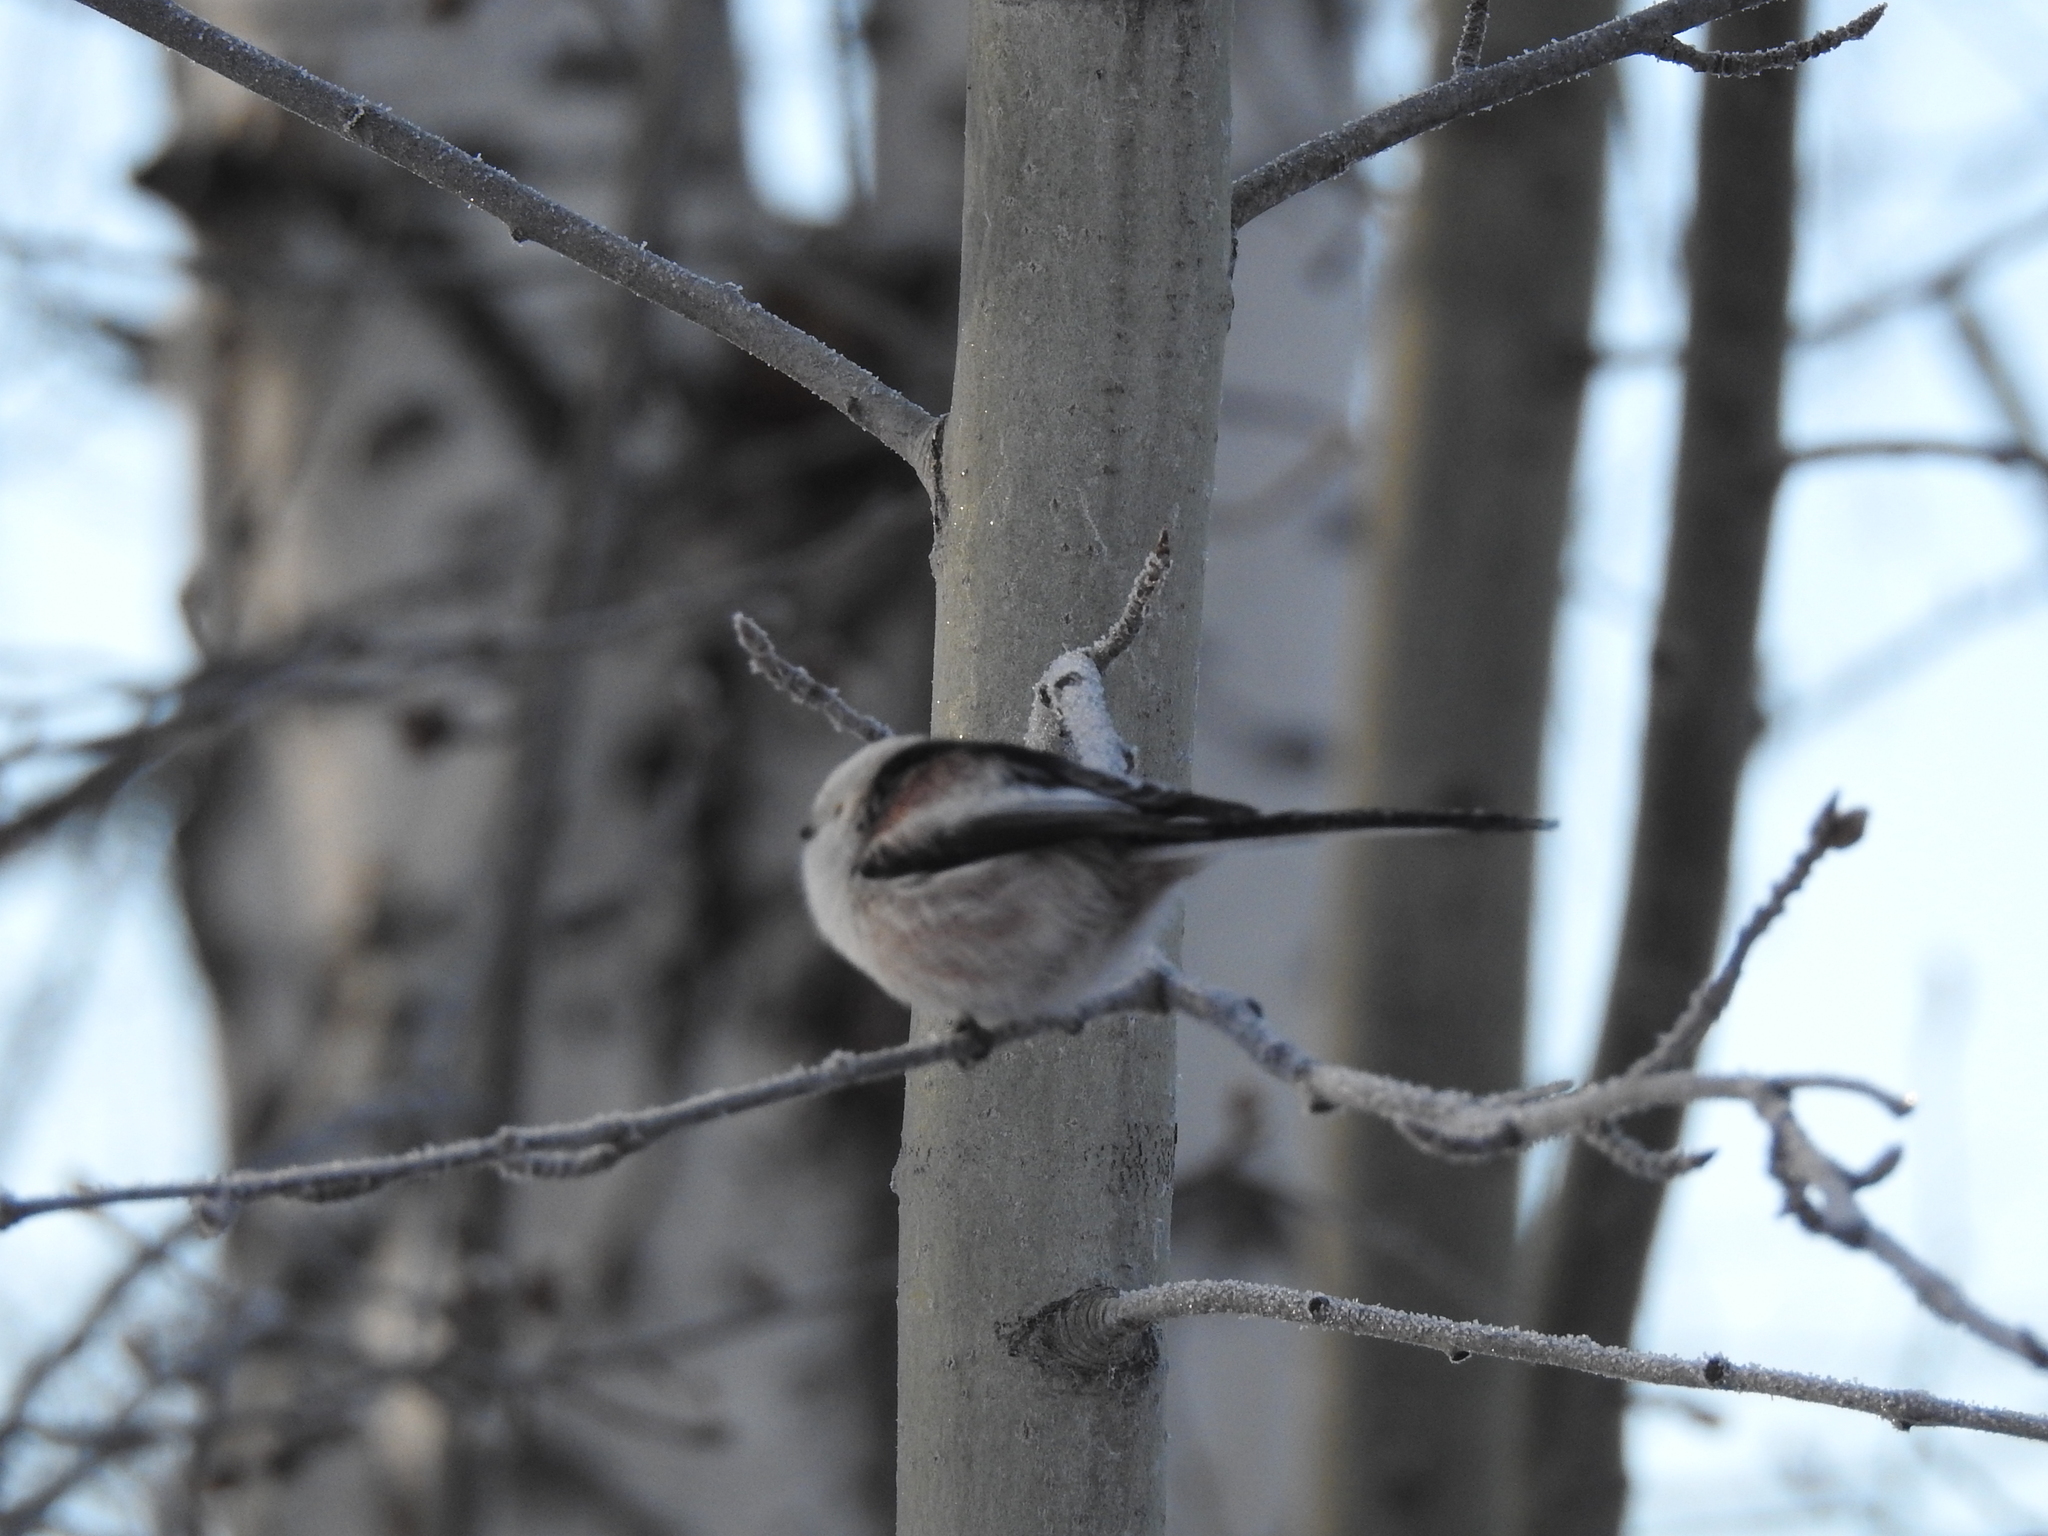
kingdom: Animalia
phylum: Chordata
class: Aves
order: Passeriformes
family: Aegithalidae
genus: Aegithalos
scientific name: Aegithalos caudatus
